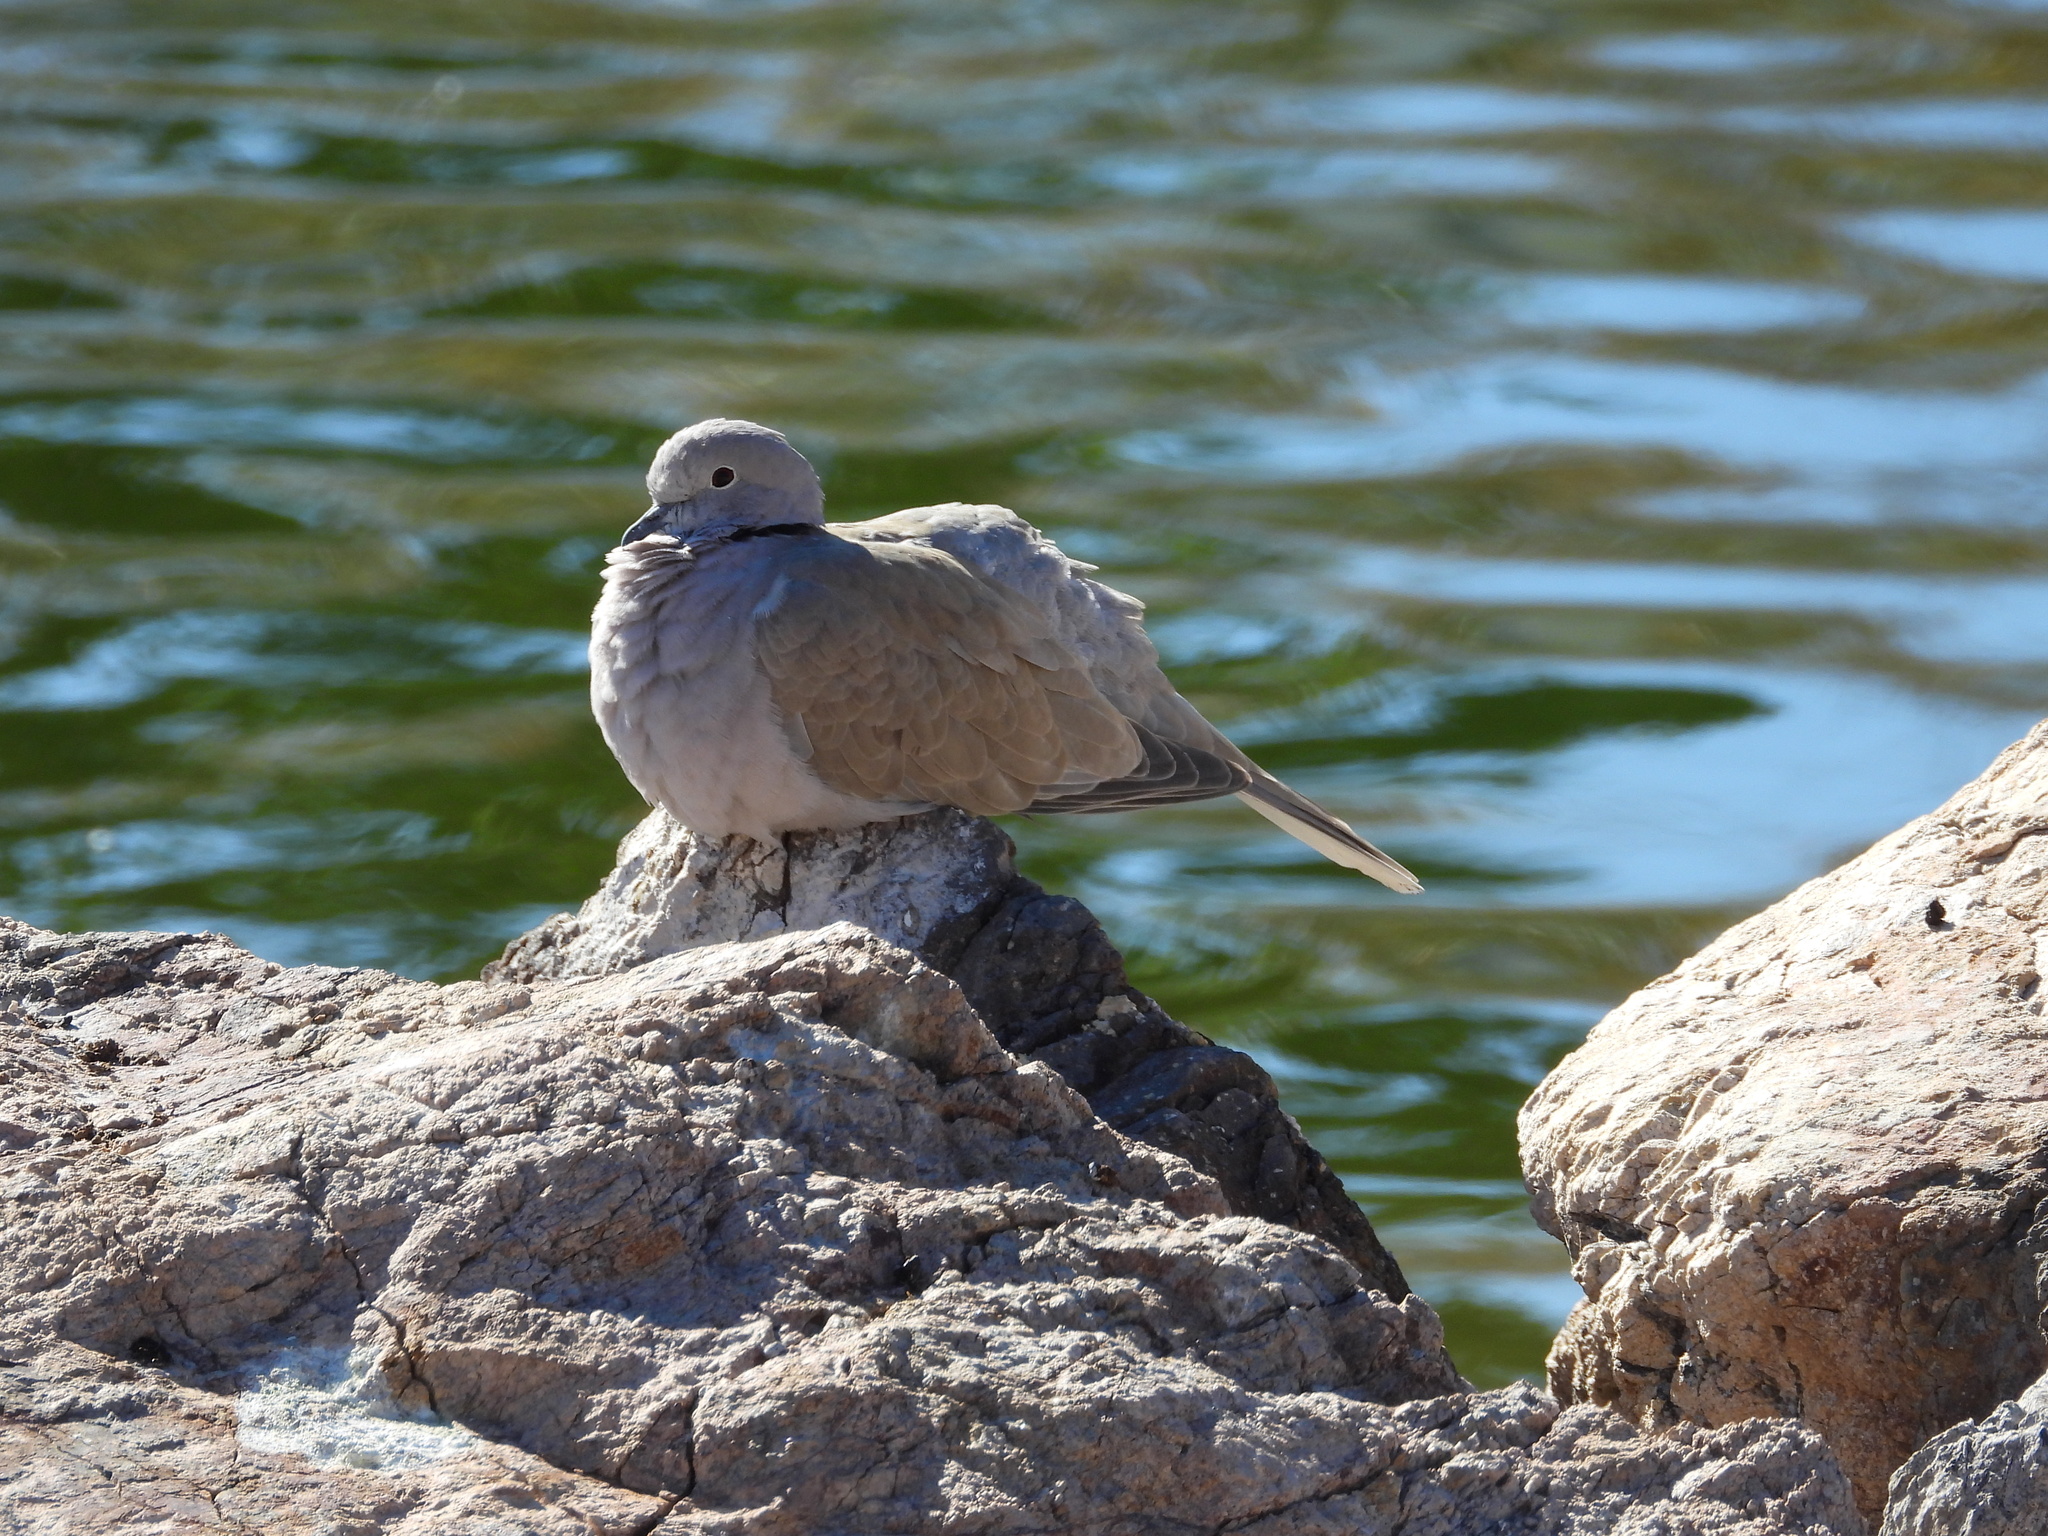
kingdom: Animalia
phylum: Chordata
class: Aves
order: Columbiformes
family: Columbidae
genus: Streptopelia
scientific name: Streptopelia decaocto
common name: Eurasian collared dove
